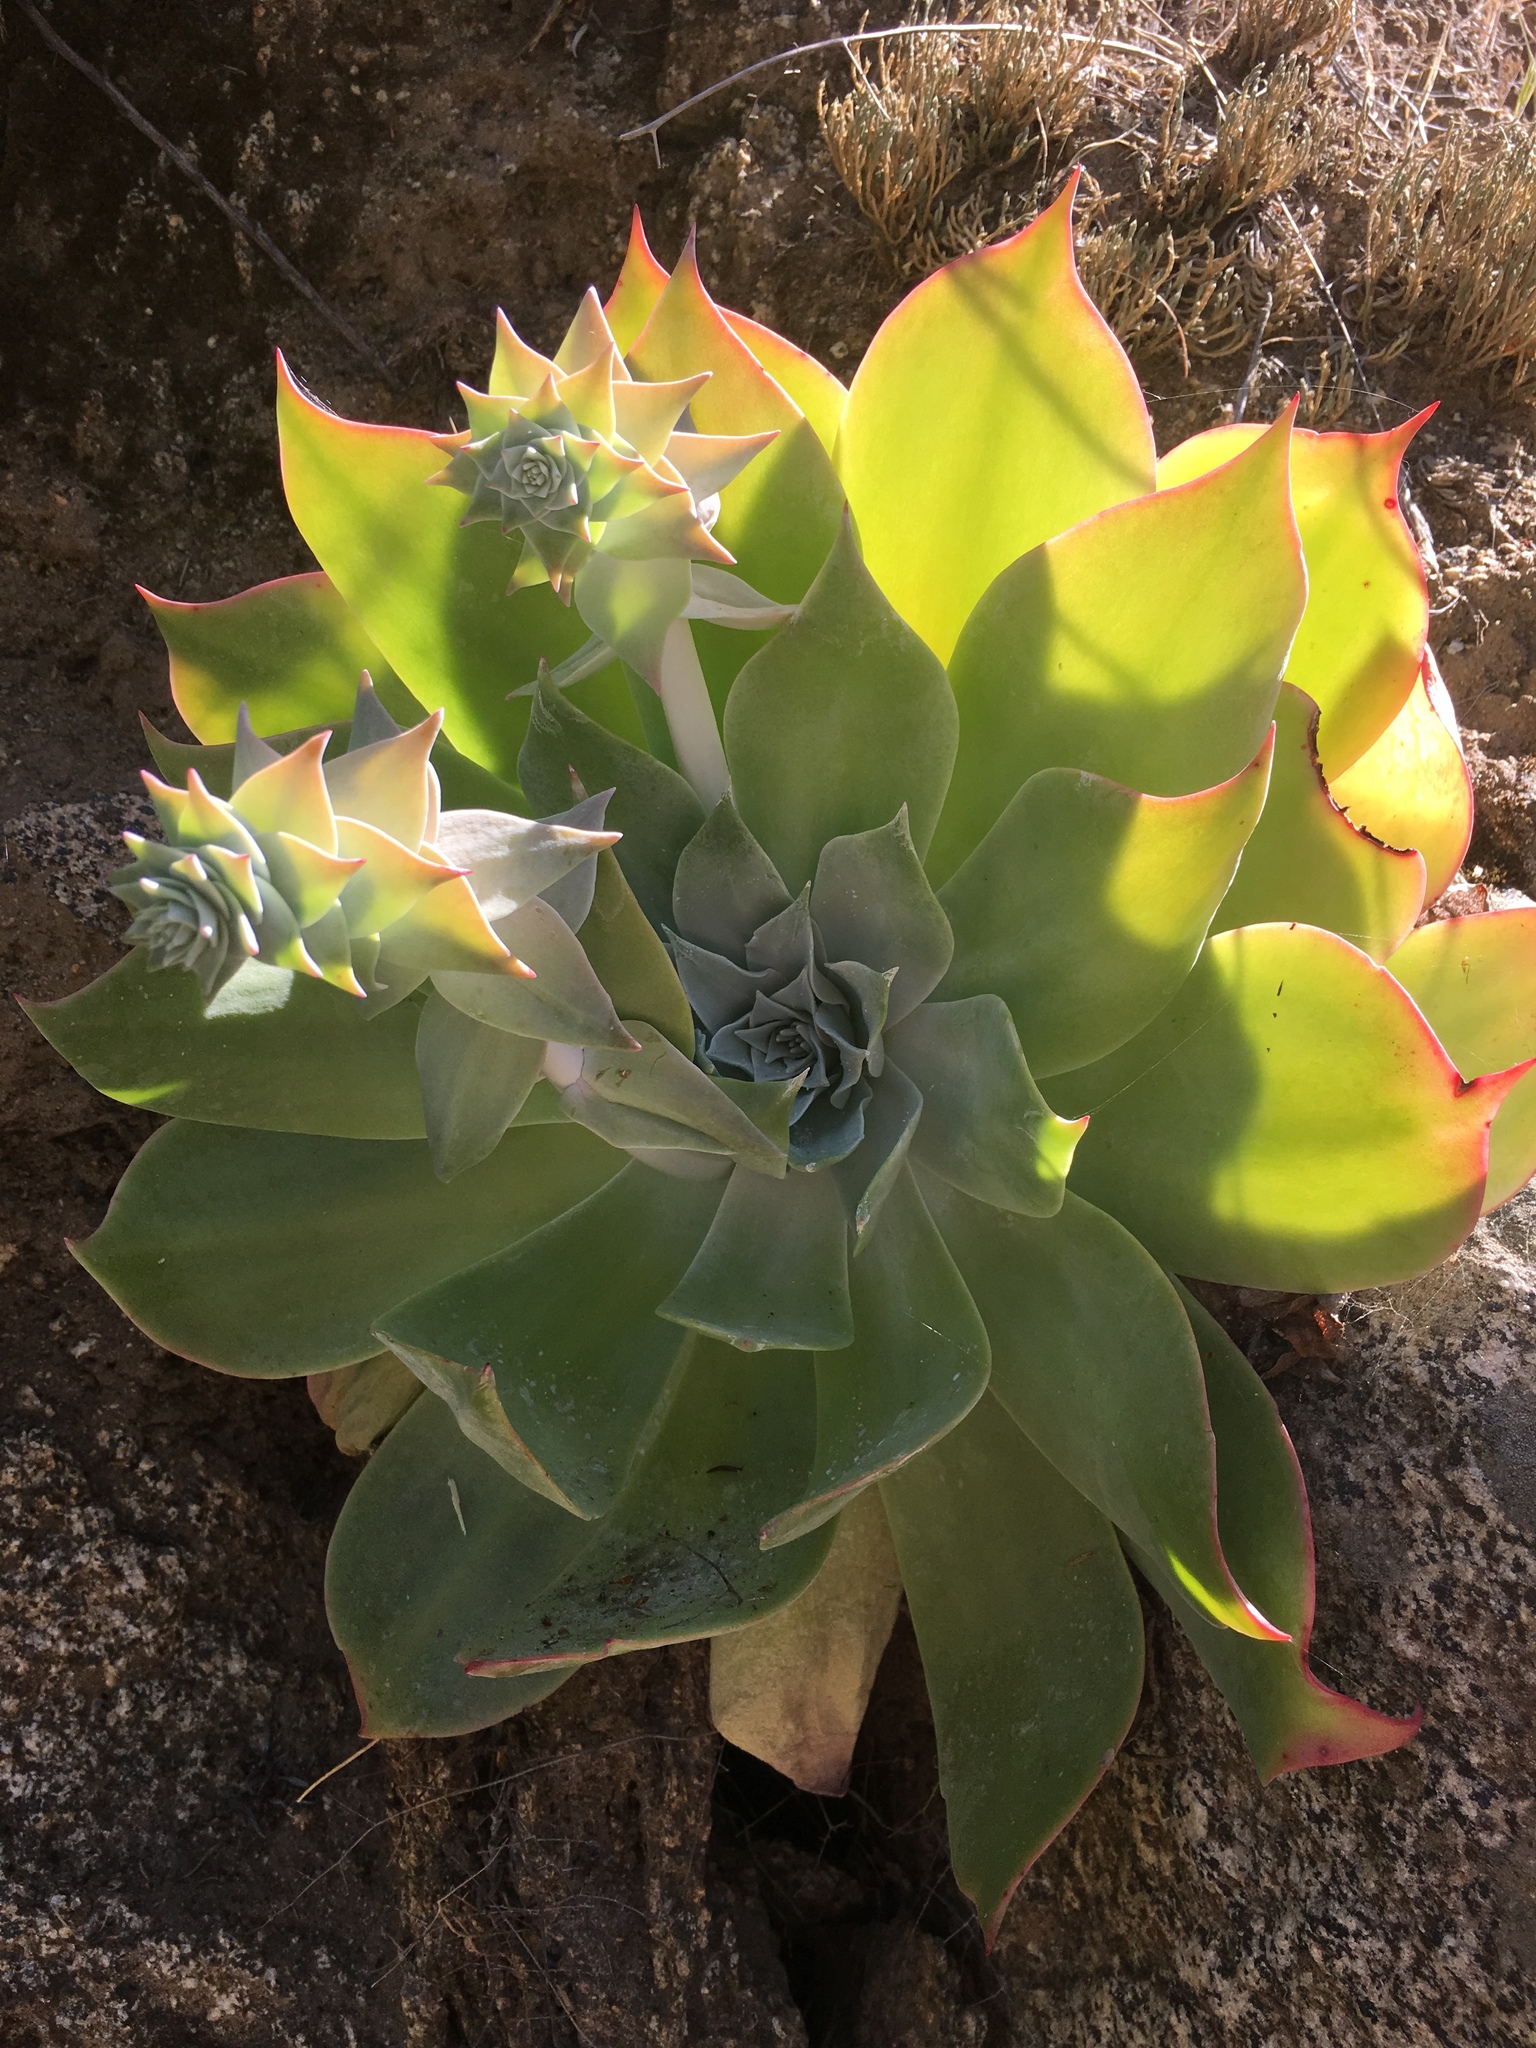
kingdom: Plantae
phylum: Tracheophyta
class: Magnoliopsida
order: Saxifragales
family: Crassulaceae
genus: Dudleya
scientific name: Dudleya pulverulenta
